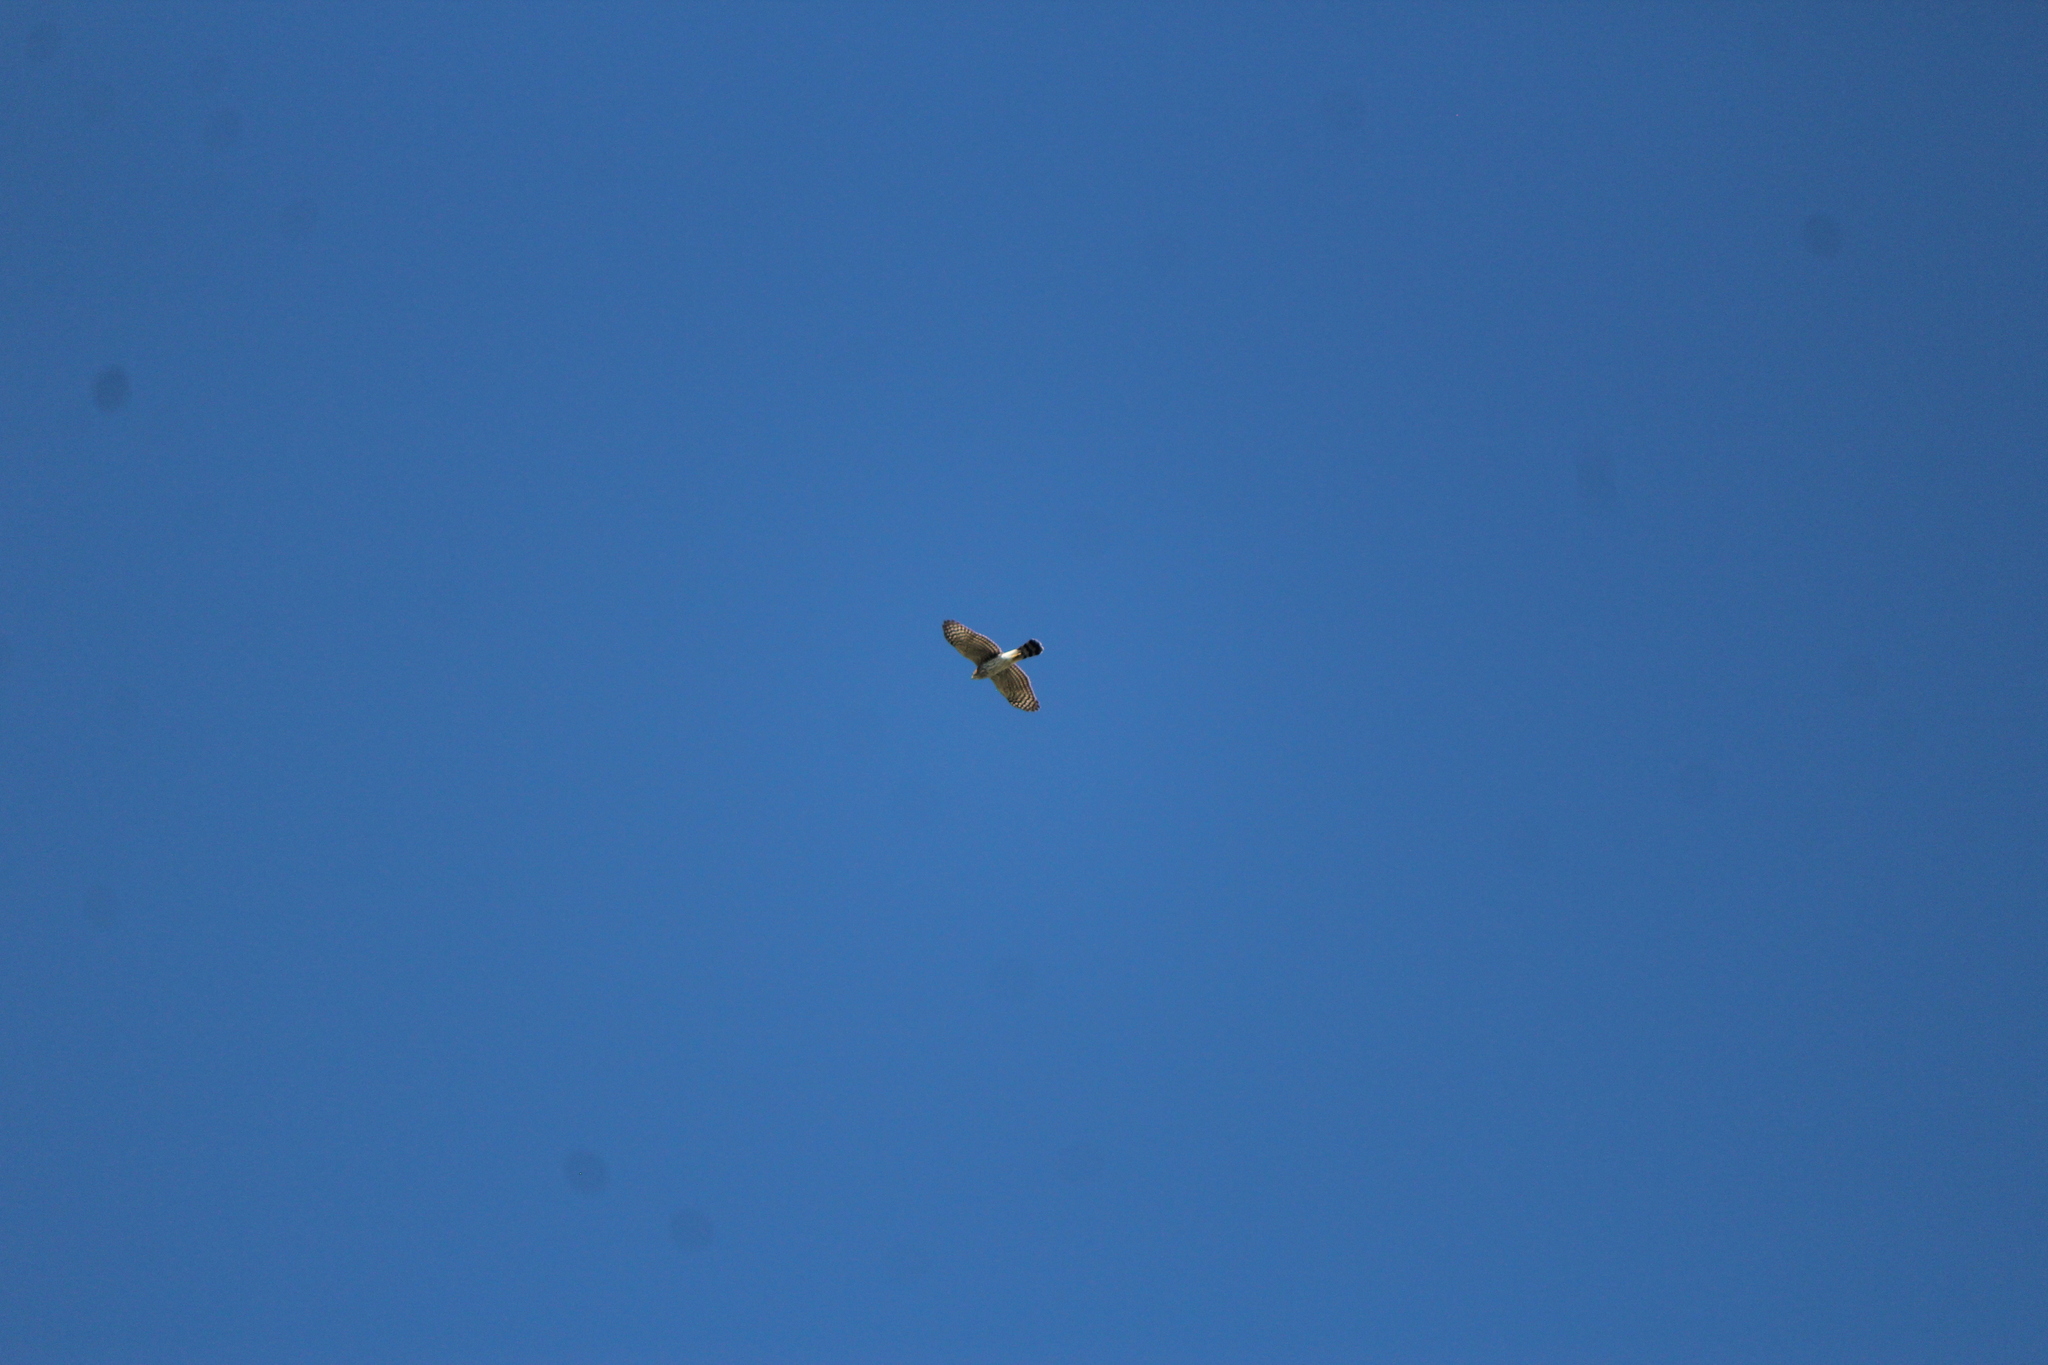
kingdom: Animalia
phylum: Chordata
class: Aves
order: Accipitriformes
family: Accipitridae
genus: Accipiter
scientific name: Accipiter cooperii
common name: Cooper's hawk
